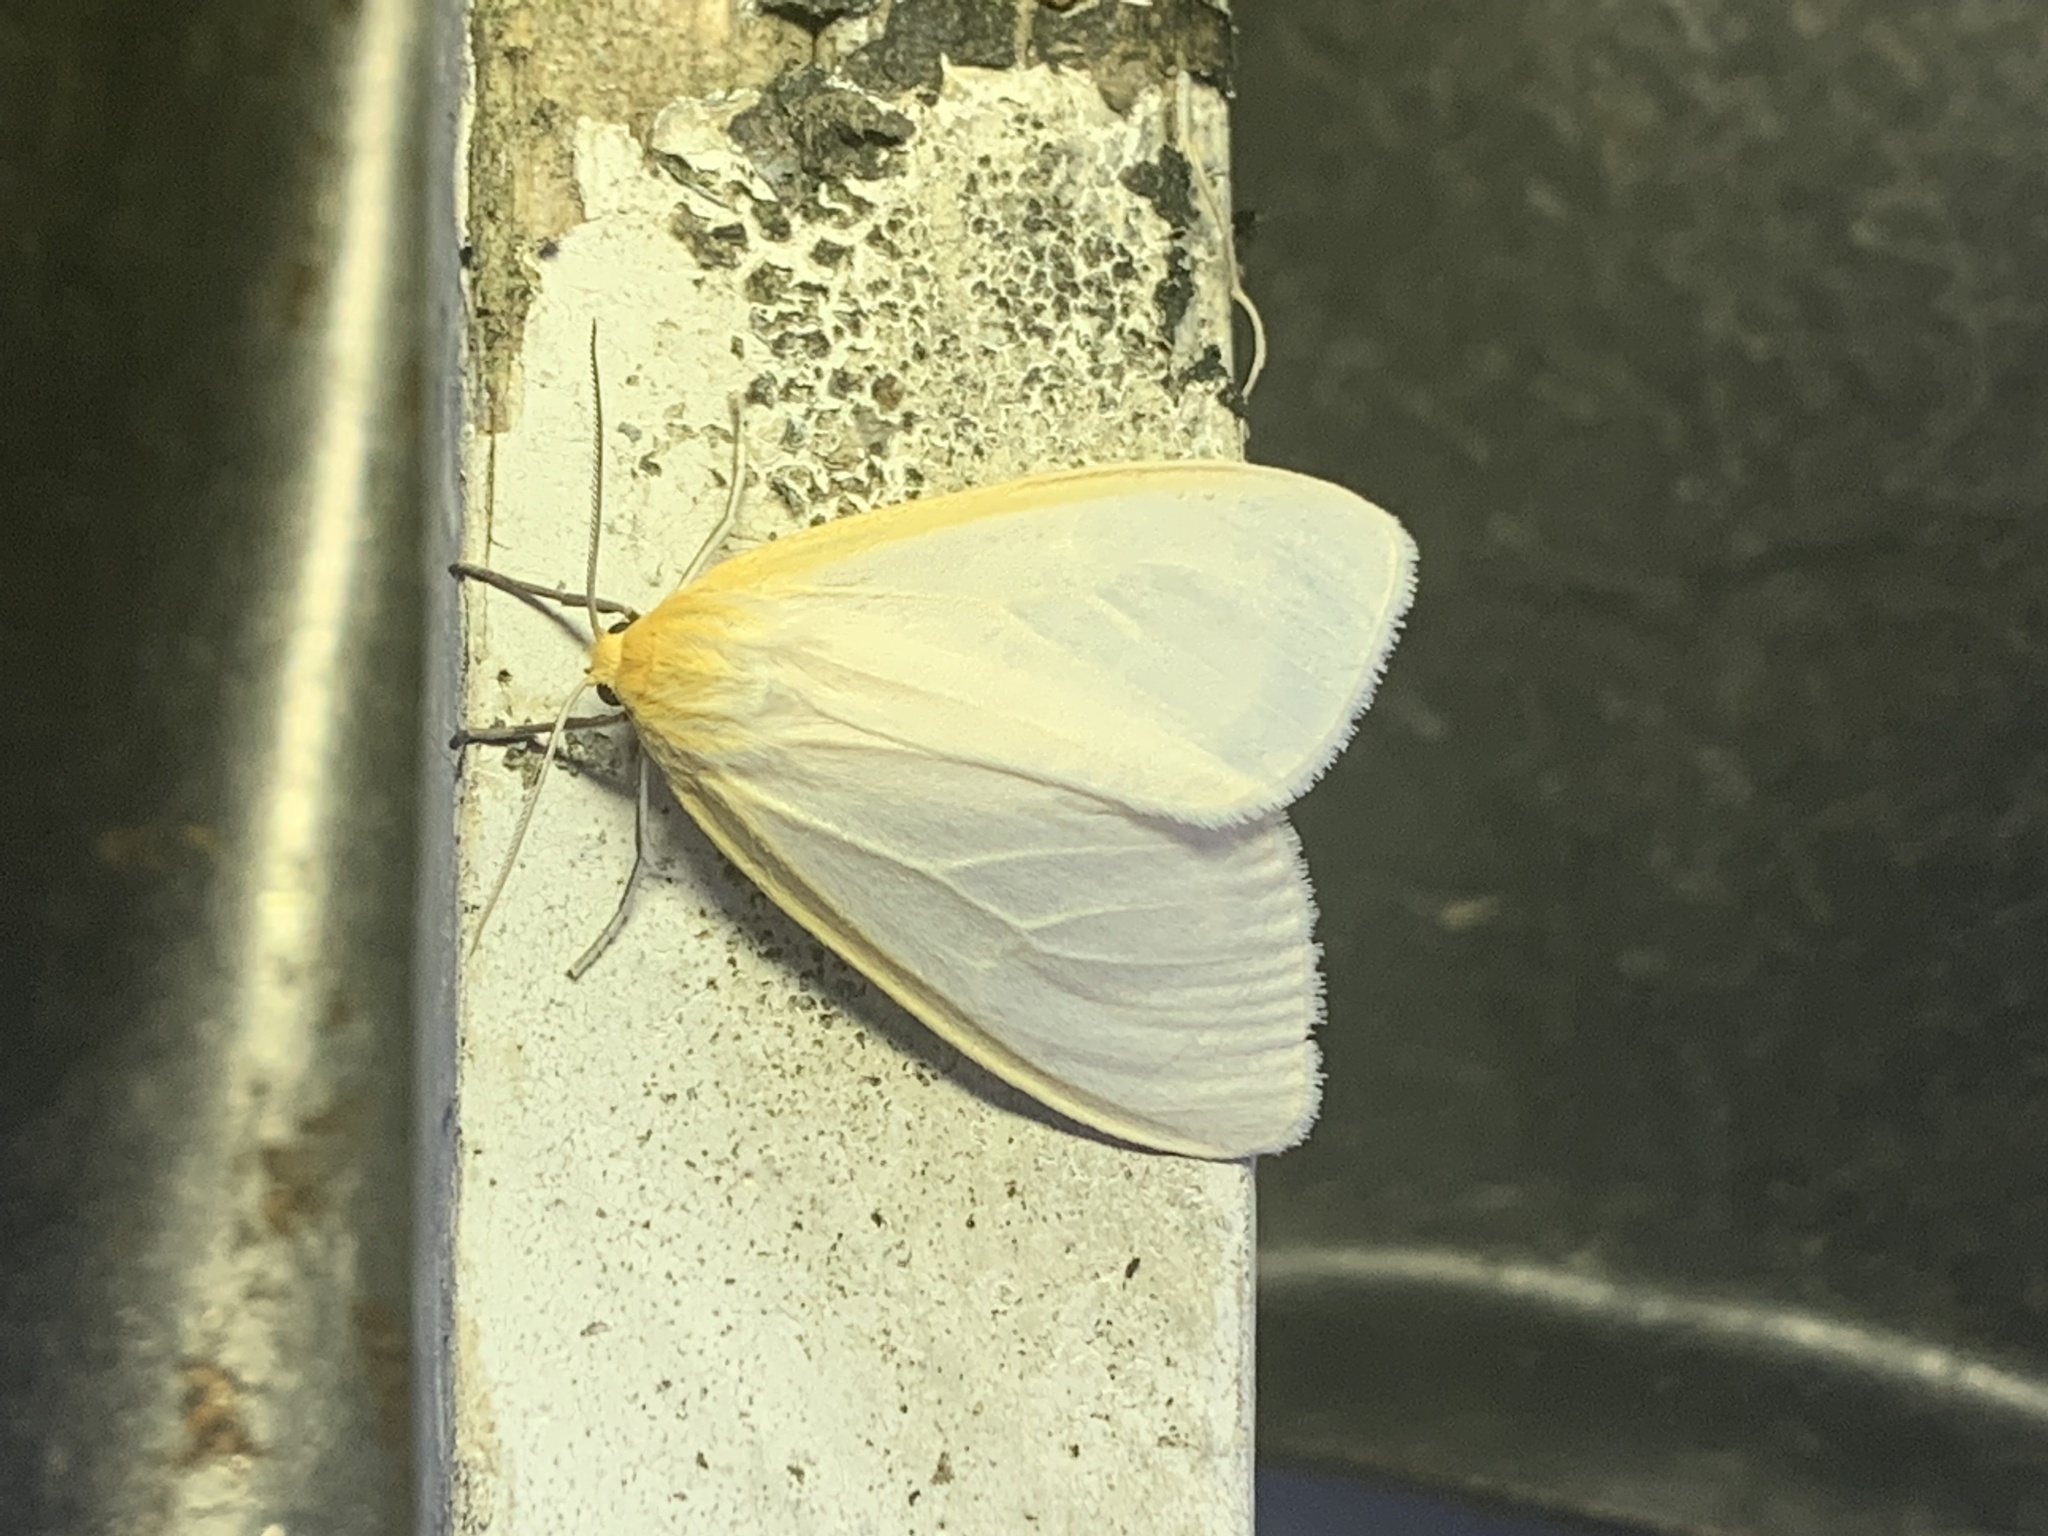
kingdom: Animalia
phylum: Arthropoda
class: Insecta
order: Lepidoptera
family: Erebidae
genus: Cycnia
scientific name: Cycnia tenera
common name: Delicate cycnia moth
